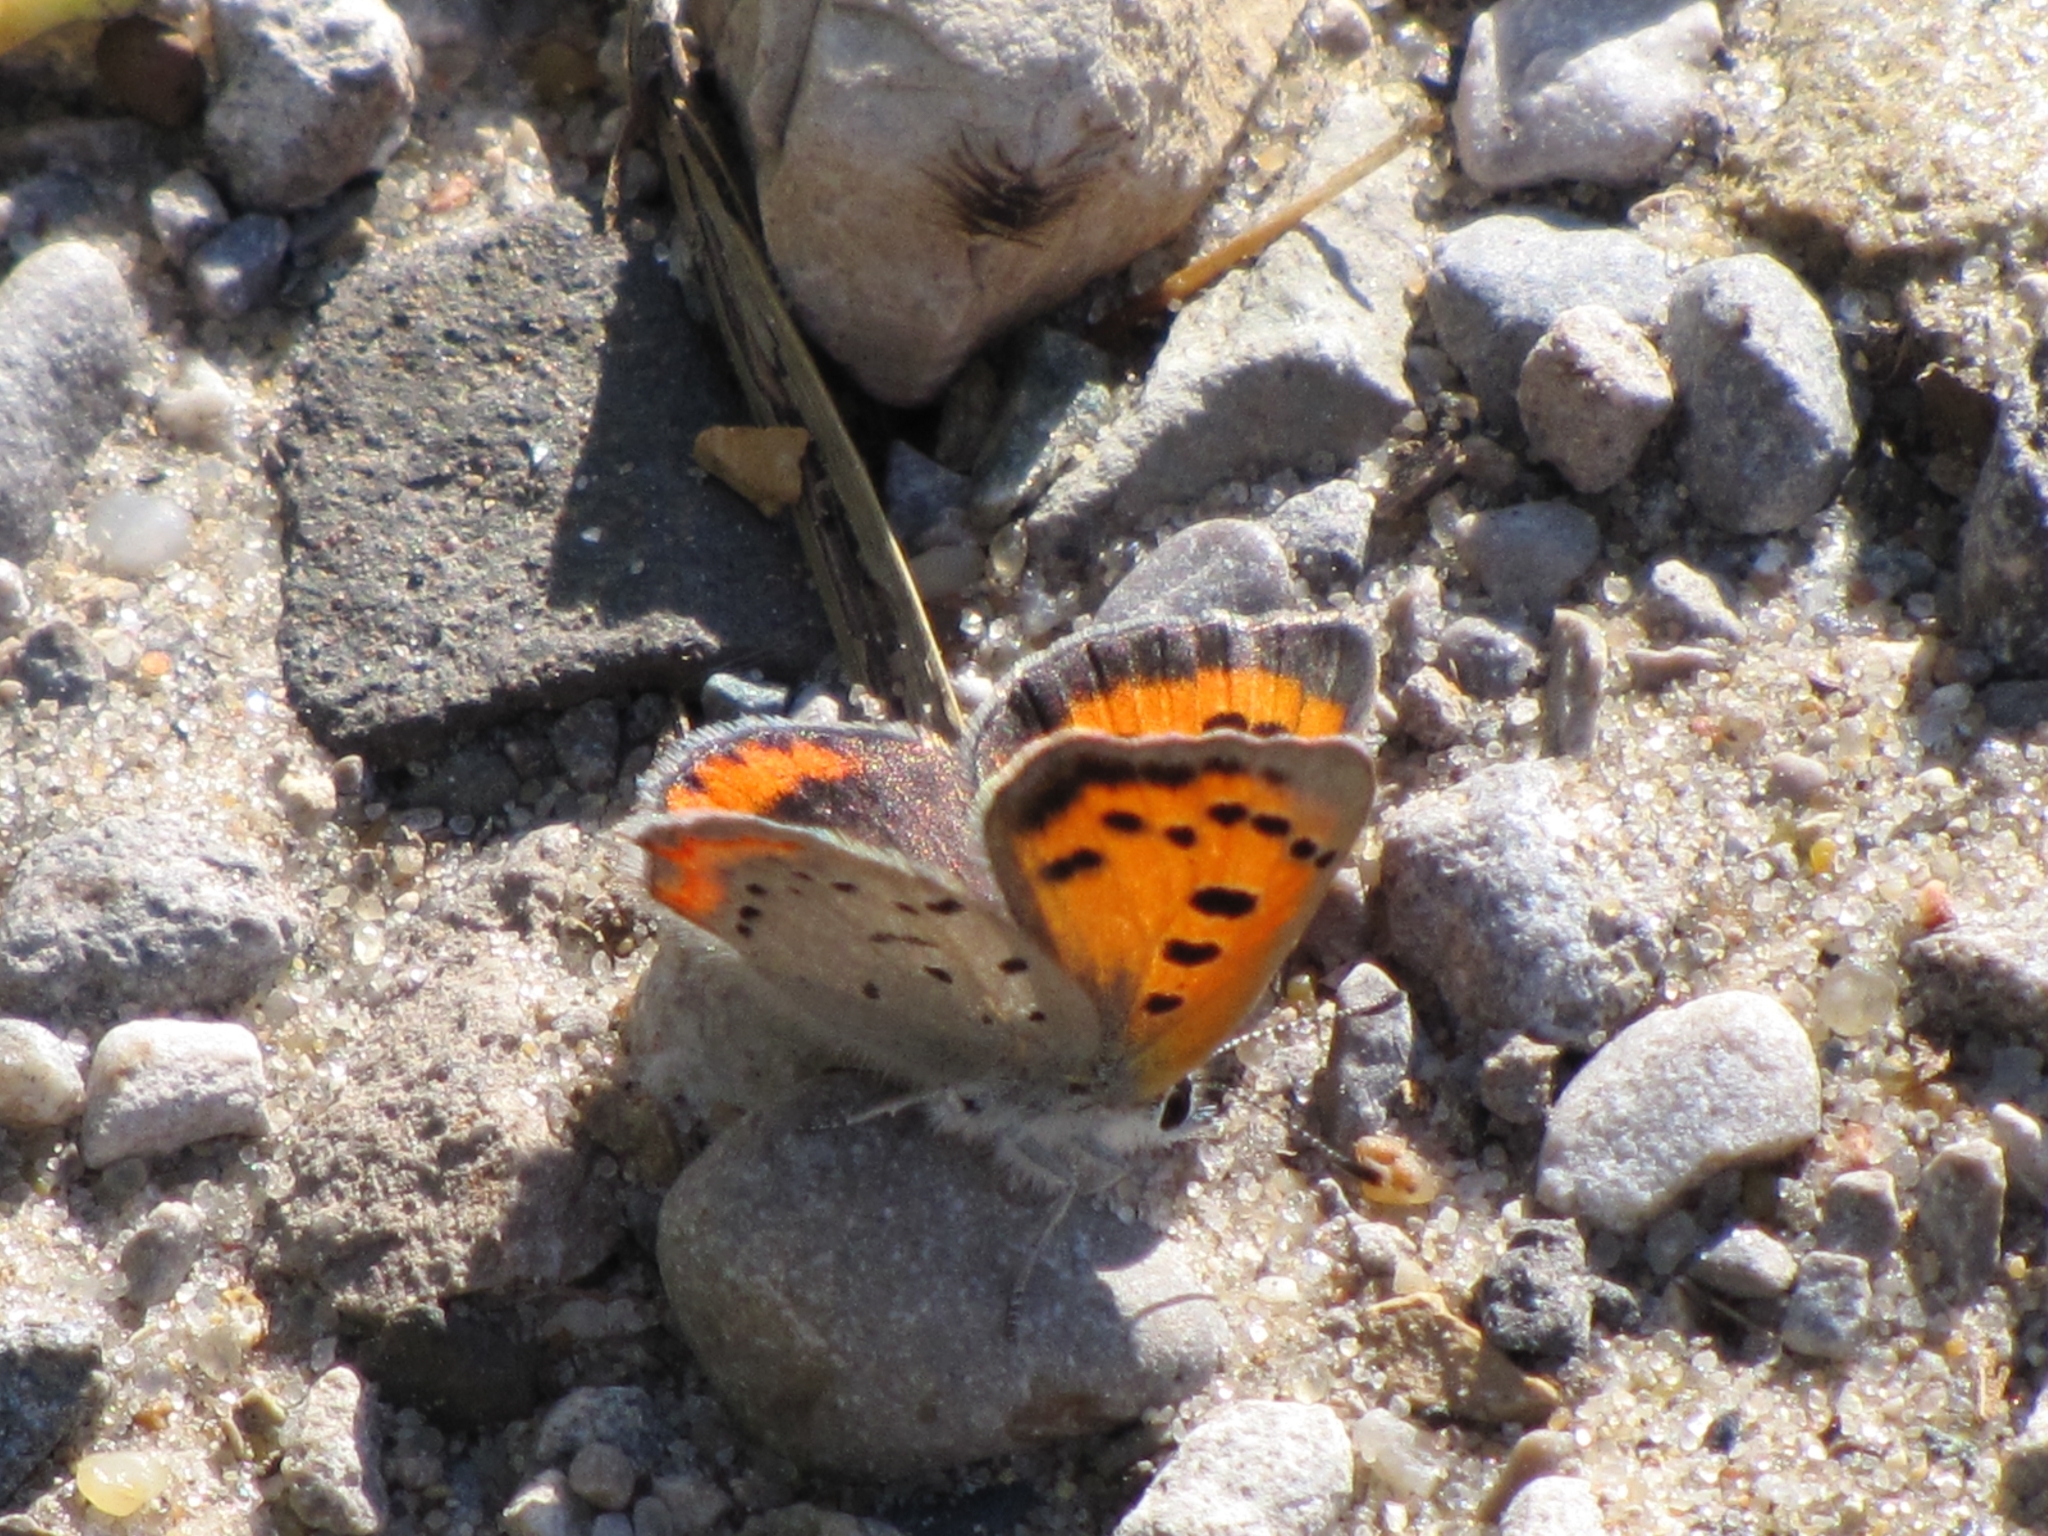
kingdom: Animalia
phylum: Arthropoda
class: Insecta
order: Lepidoptera
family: Lycaenidae
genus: Lycaena
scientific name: Lycaena hypophlaeas
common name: American copper
